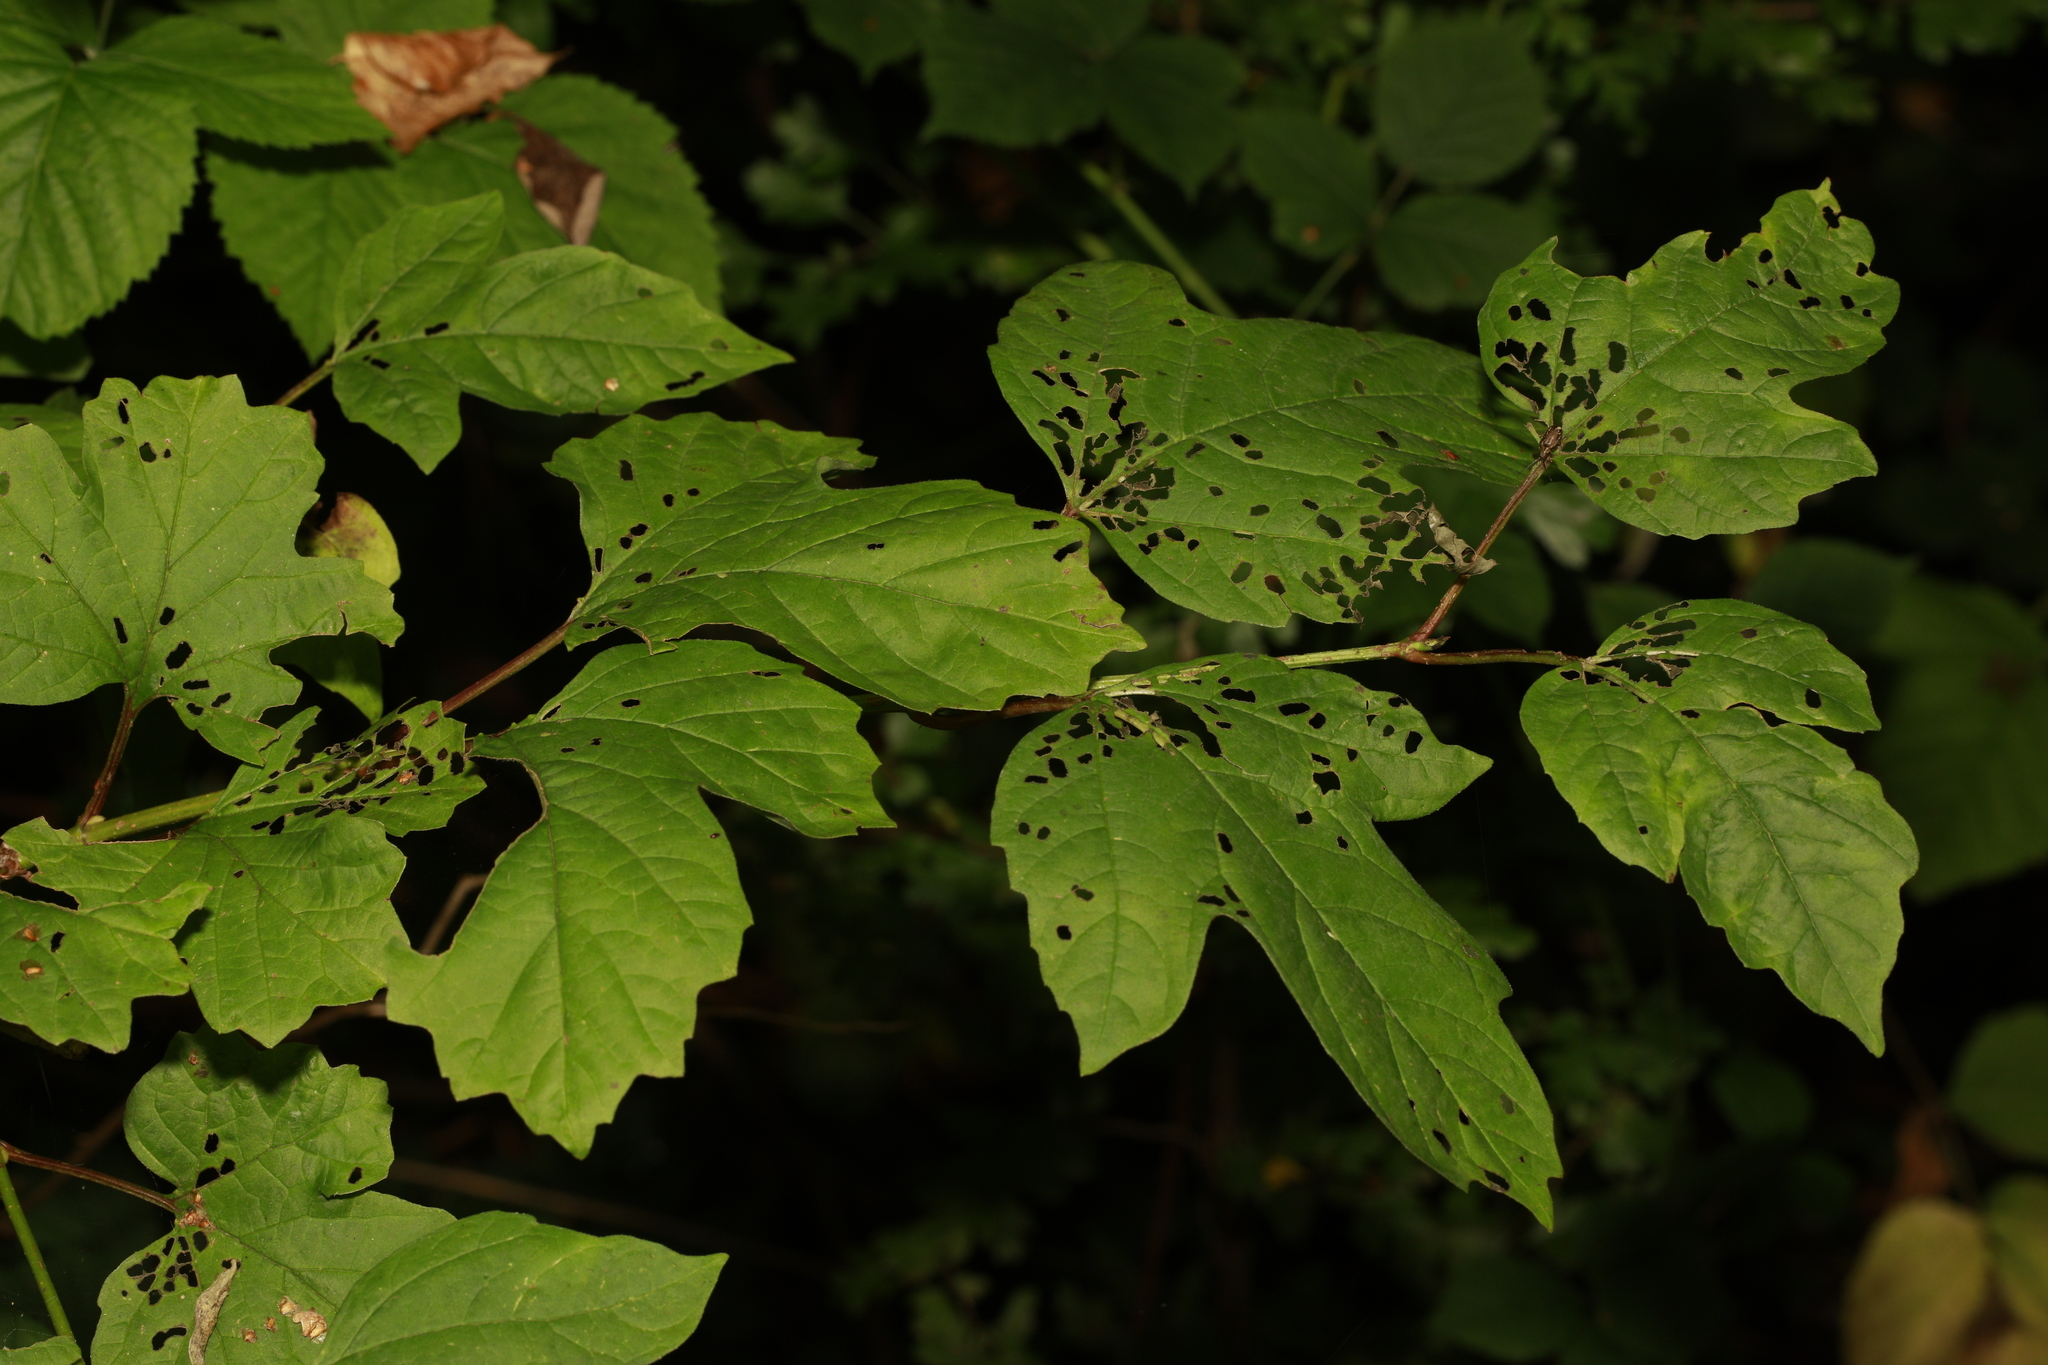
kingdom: Plantae
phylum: Tracheophyta
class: Magnoliopsida
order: Dipsacales
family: Viburnaceae
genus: Viburnum
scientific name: Viburnum opulus
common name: Guelder-rose
